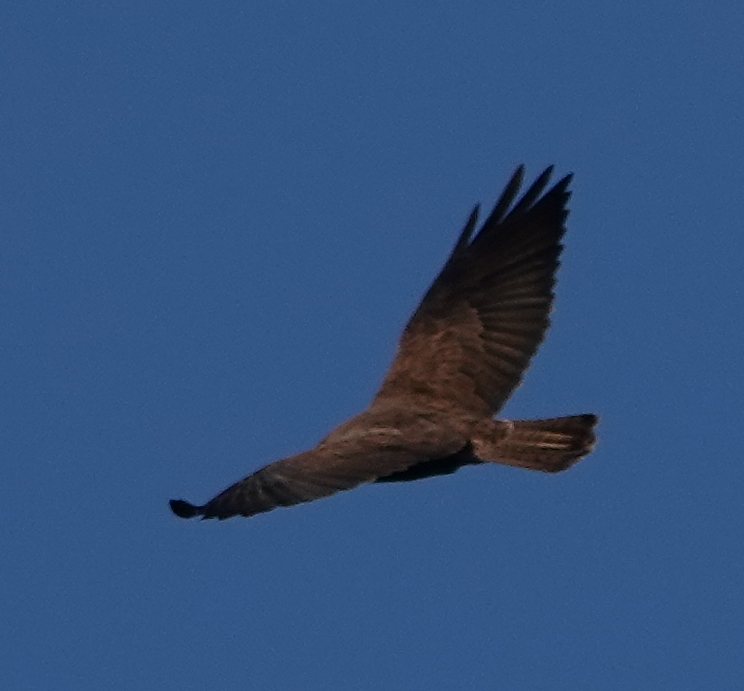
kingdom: Animalia
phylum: Chordata
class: Aves
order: Accipitriformes
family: Accipitridae
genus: Buteo
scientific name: Buteo swainsoni
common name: Swainson's hawk
